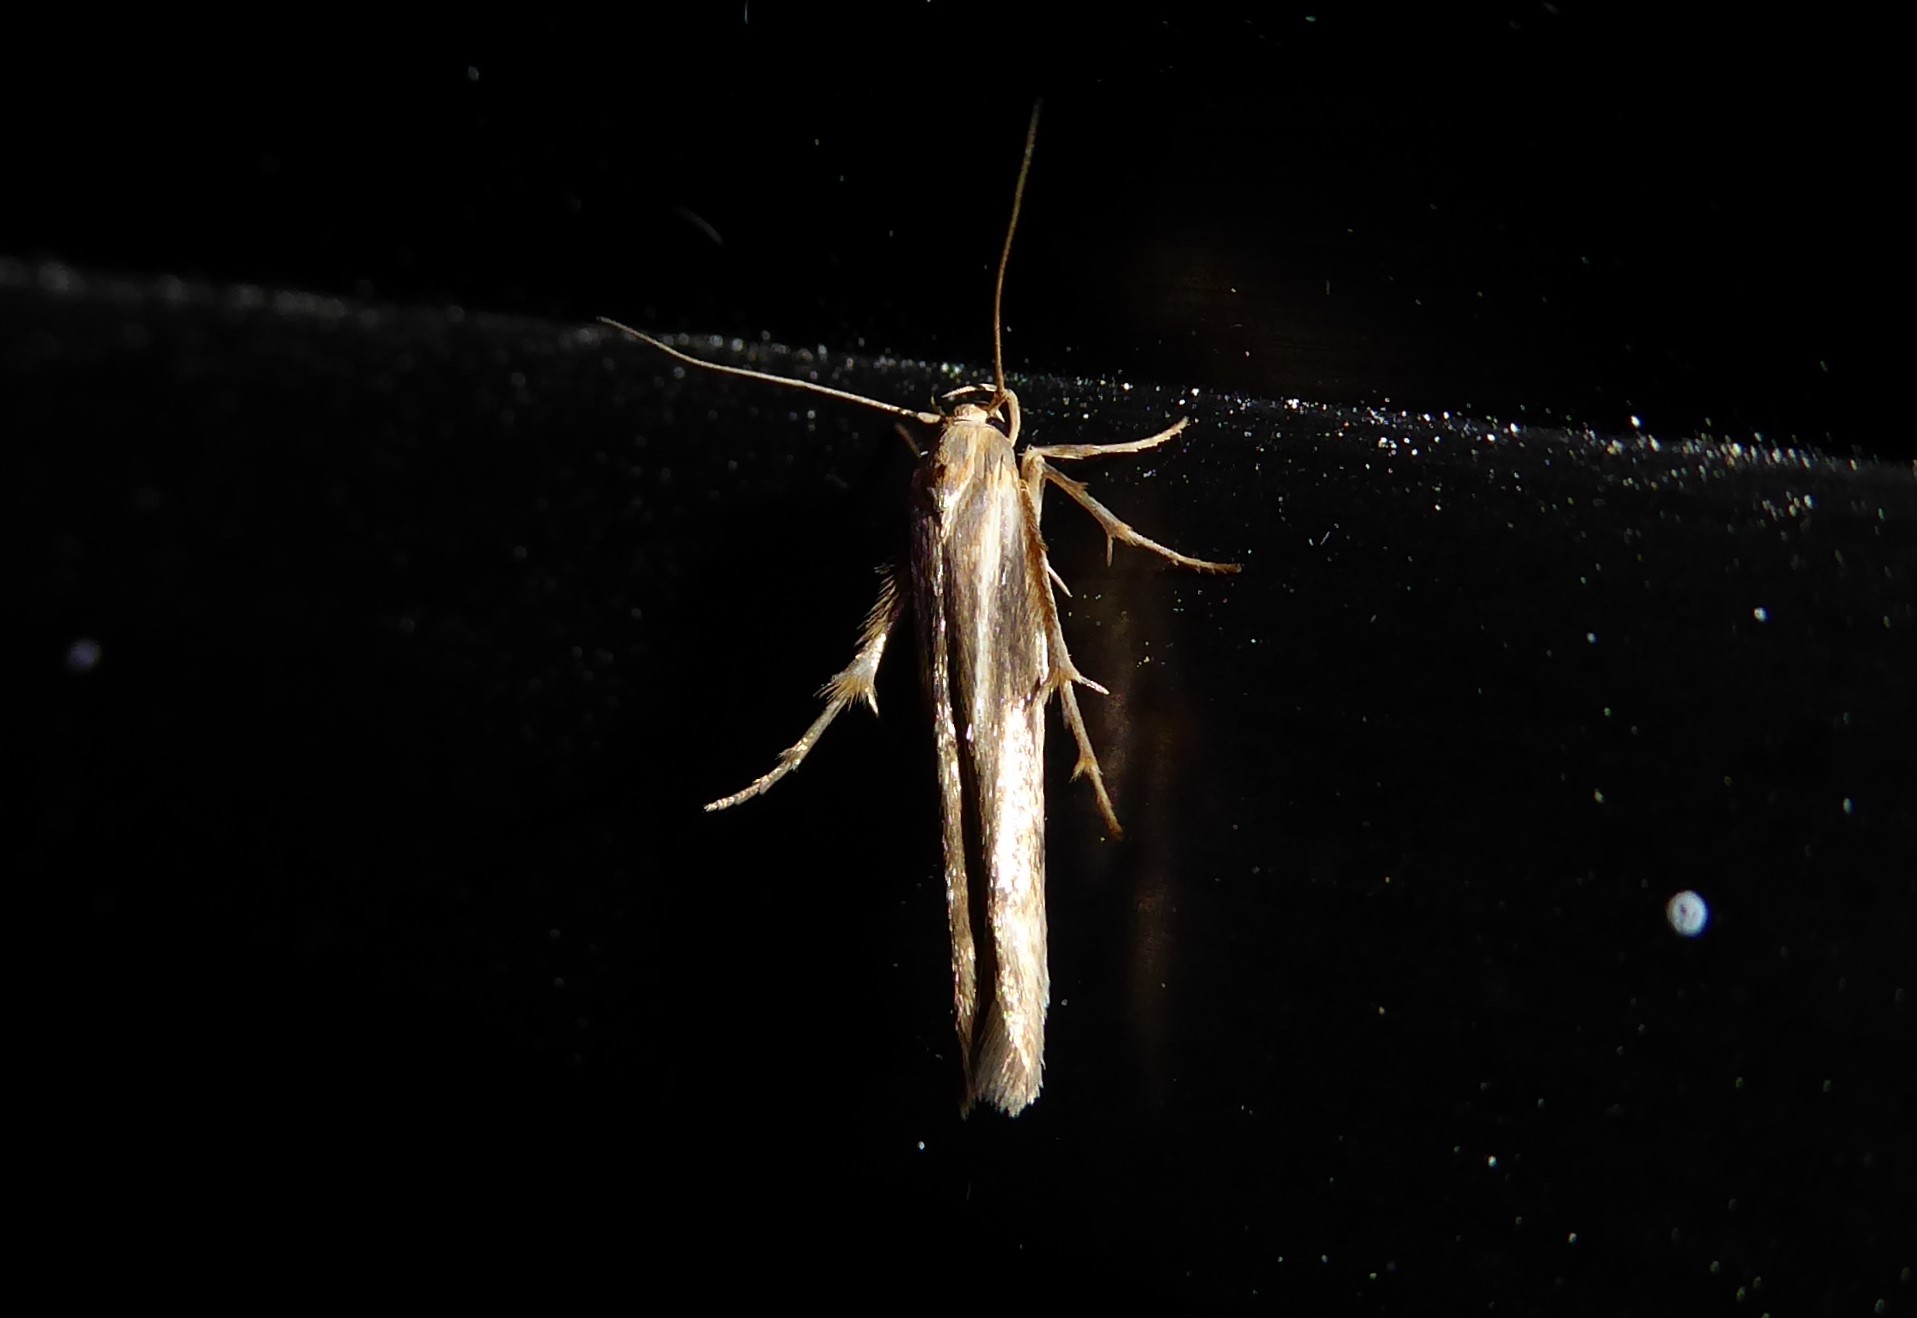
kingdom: Animalia
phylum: Arthropoda
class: Insecta
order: Lepidoptera
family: Stathmopodidae
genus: Stathmopoda
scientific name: Stathmopoda aposema
